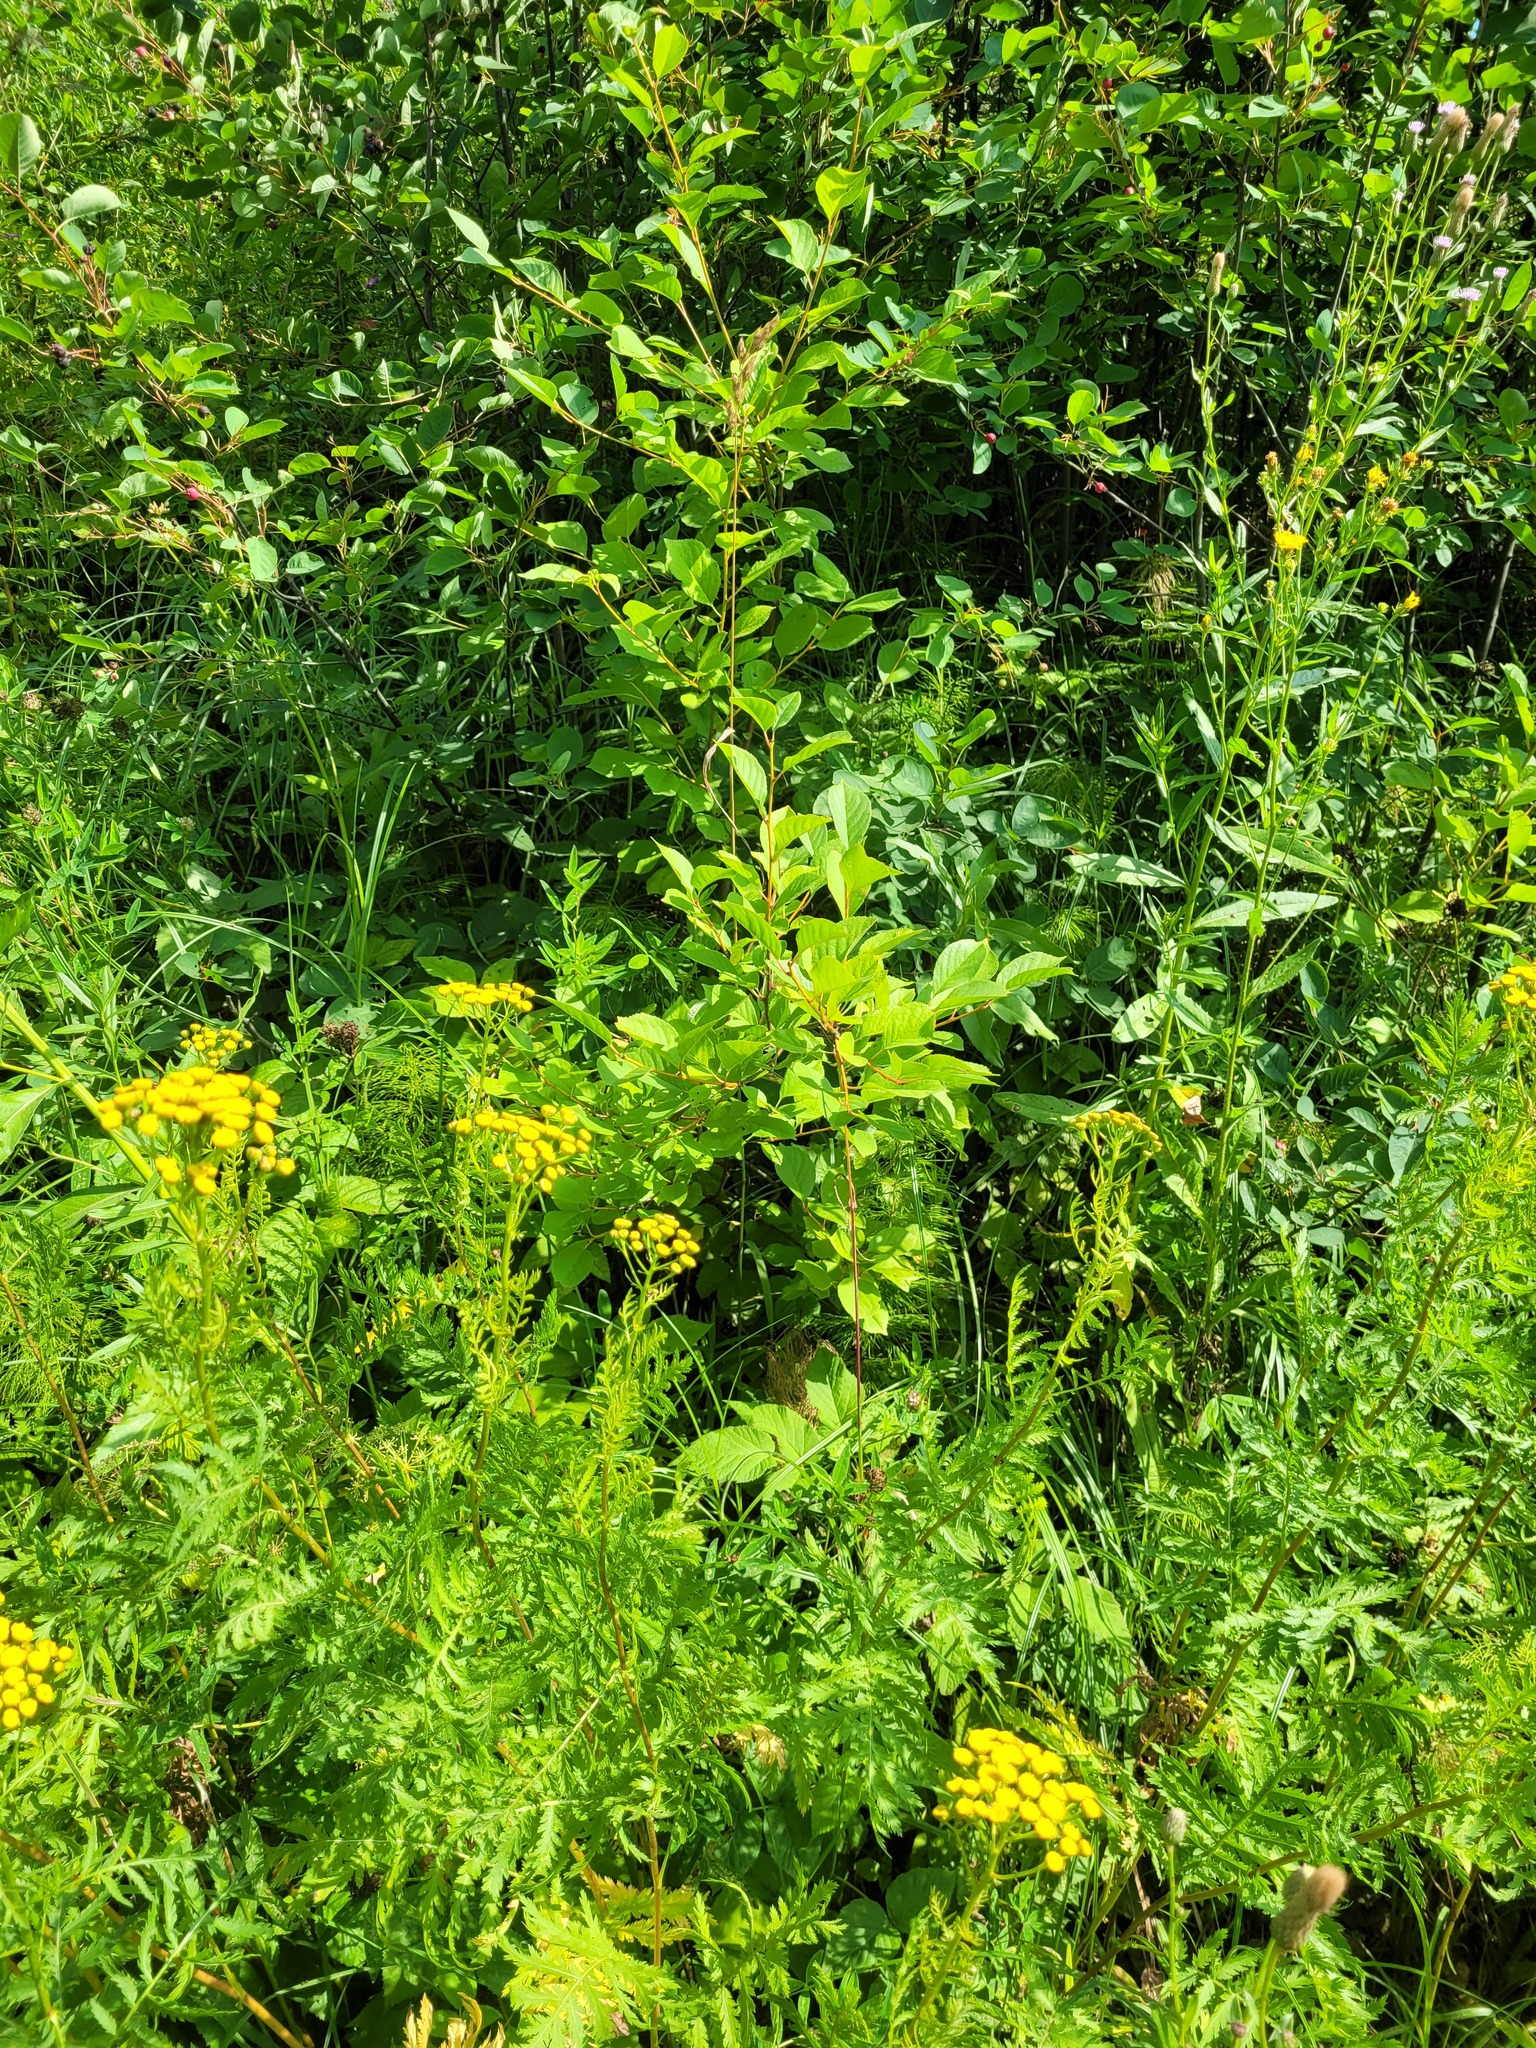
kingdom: Plantae
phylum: Tracheophyta
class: Magnoliopsida
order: Rosales
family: Rosaceae
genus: Prunus
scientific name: Prunus cerasus
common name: Morello cherry
